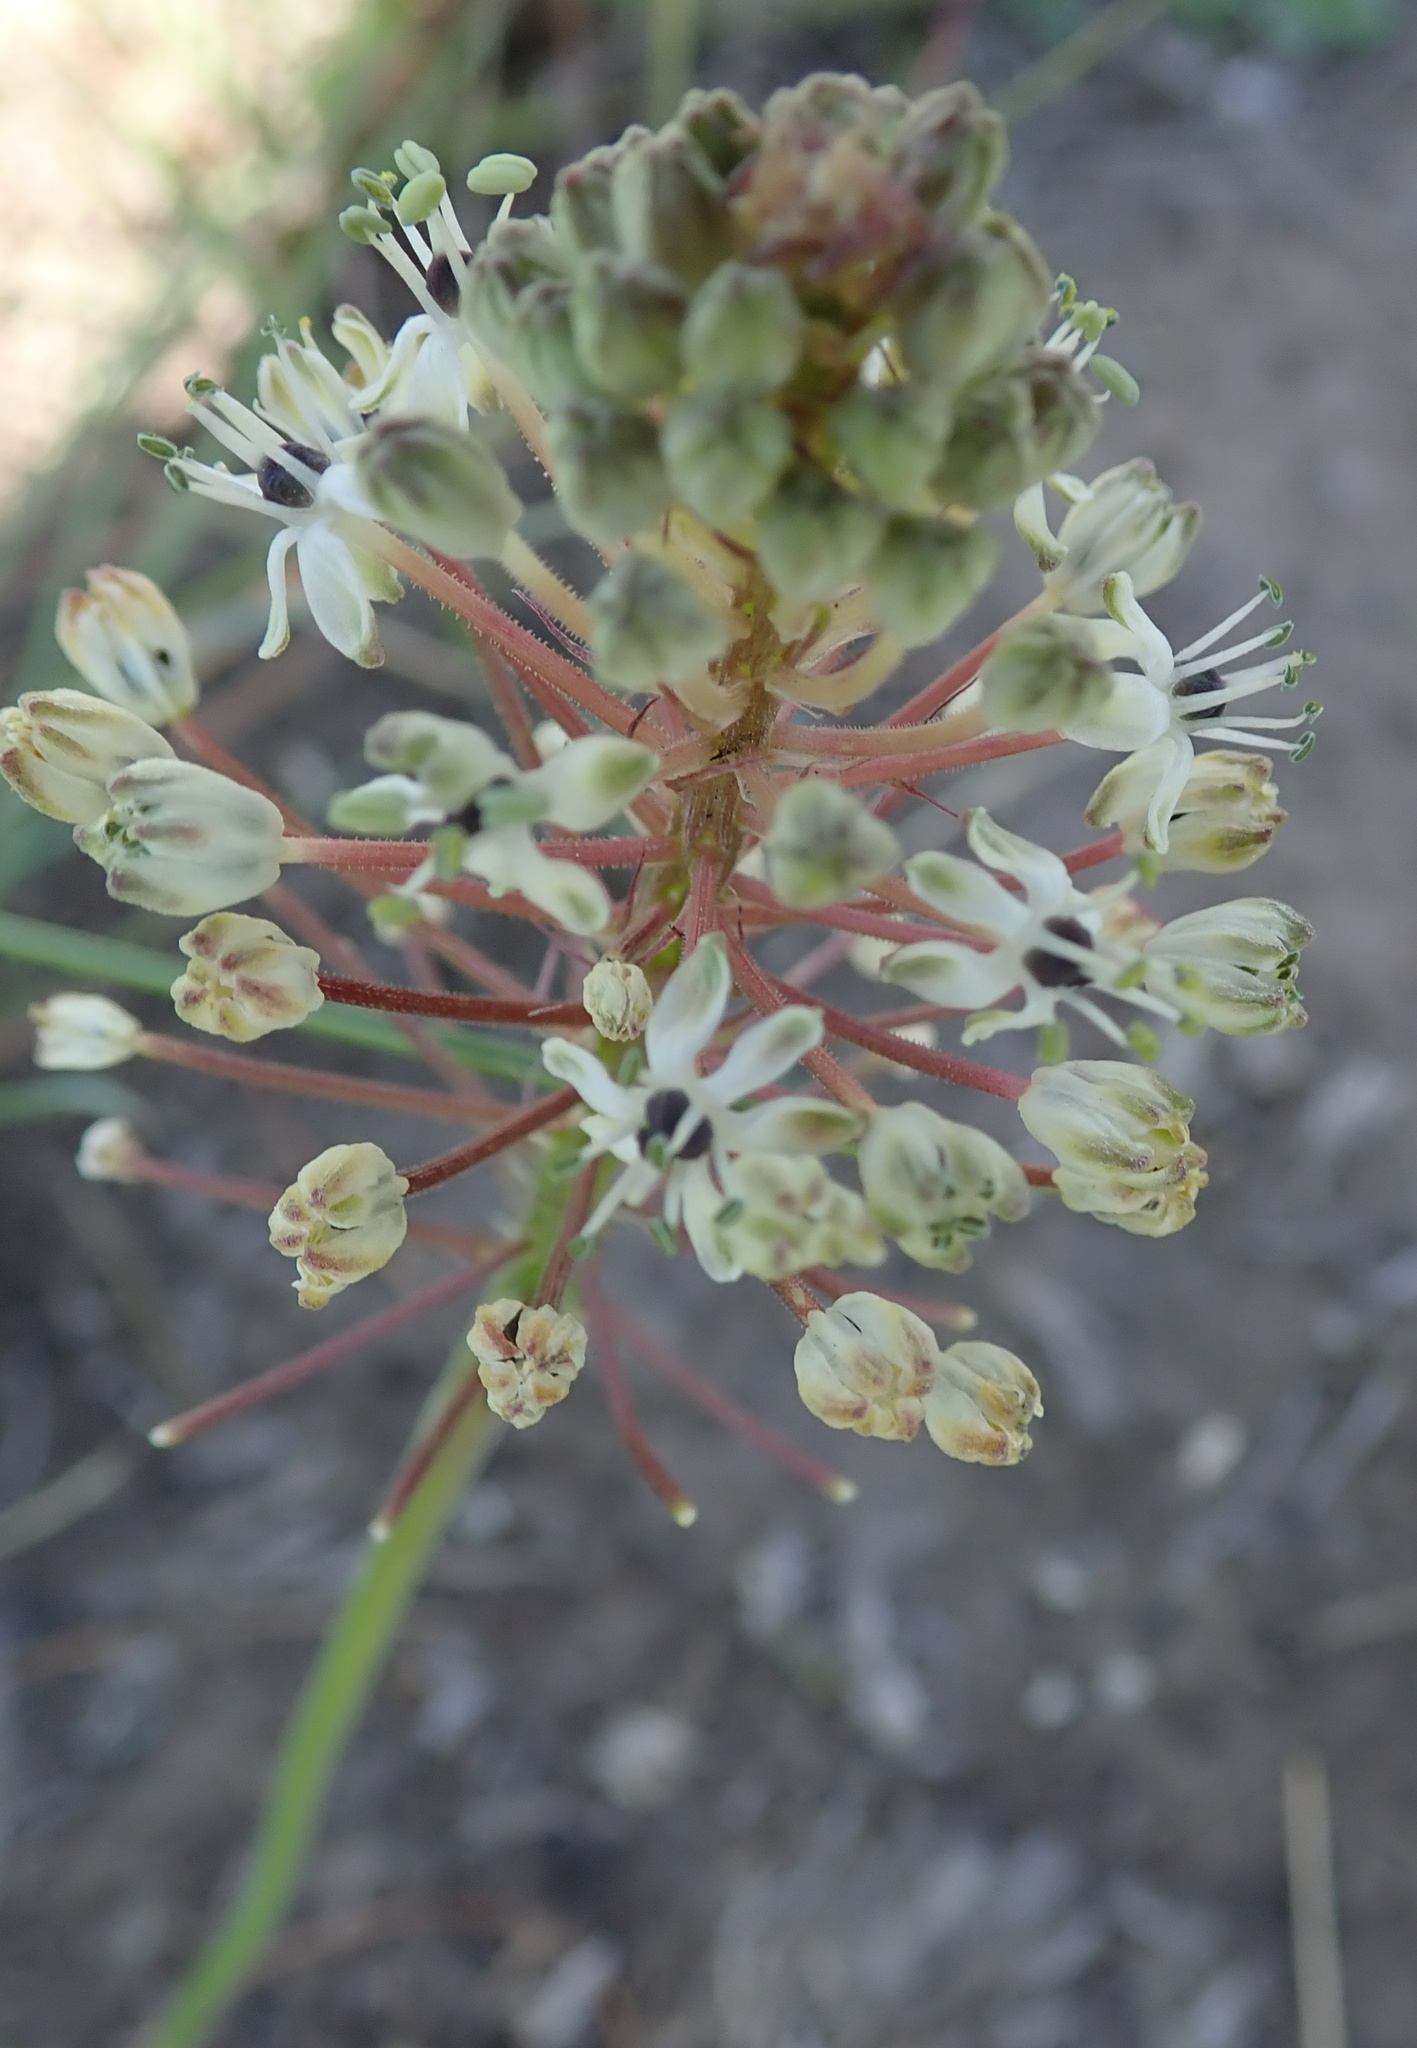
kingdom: Plantae
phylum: Tracheophyta
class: Liliopsida
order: Asparagales
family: Asparagaceae
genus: Schizocarphus
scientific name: Schizocarphus nervosus
